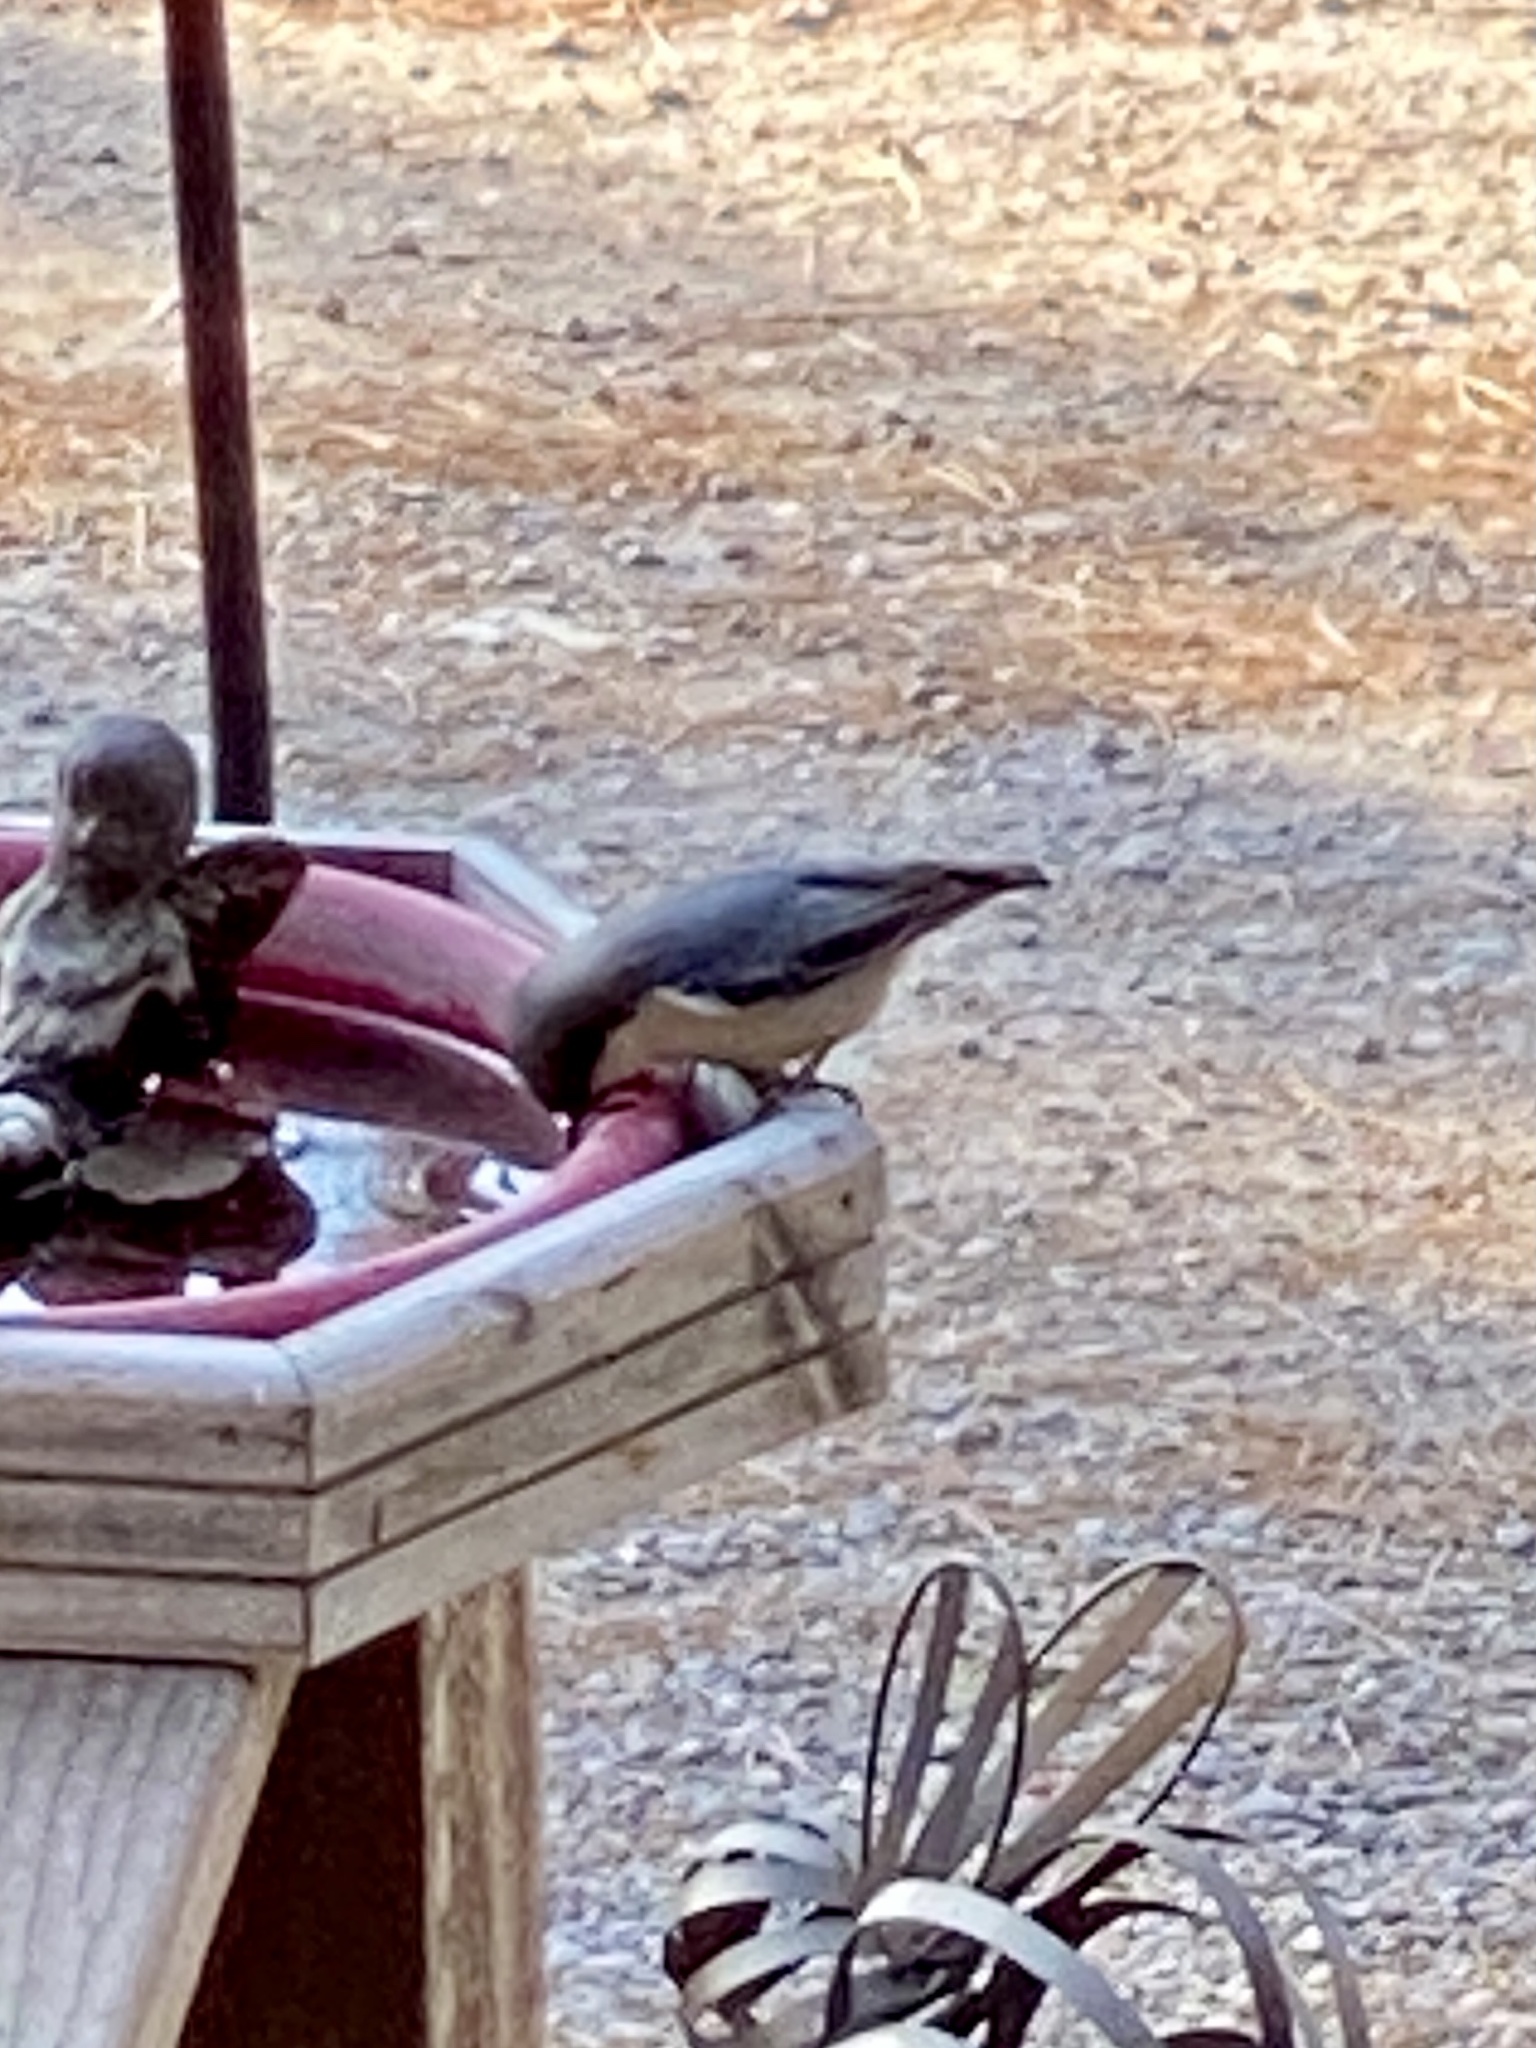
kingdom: Animalia
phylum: Chordata
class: Aves
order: Passeriformes
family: Sittidae
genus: Sitta
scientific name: Sitta pygmaea
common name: Pygmy nuthatch
